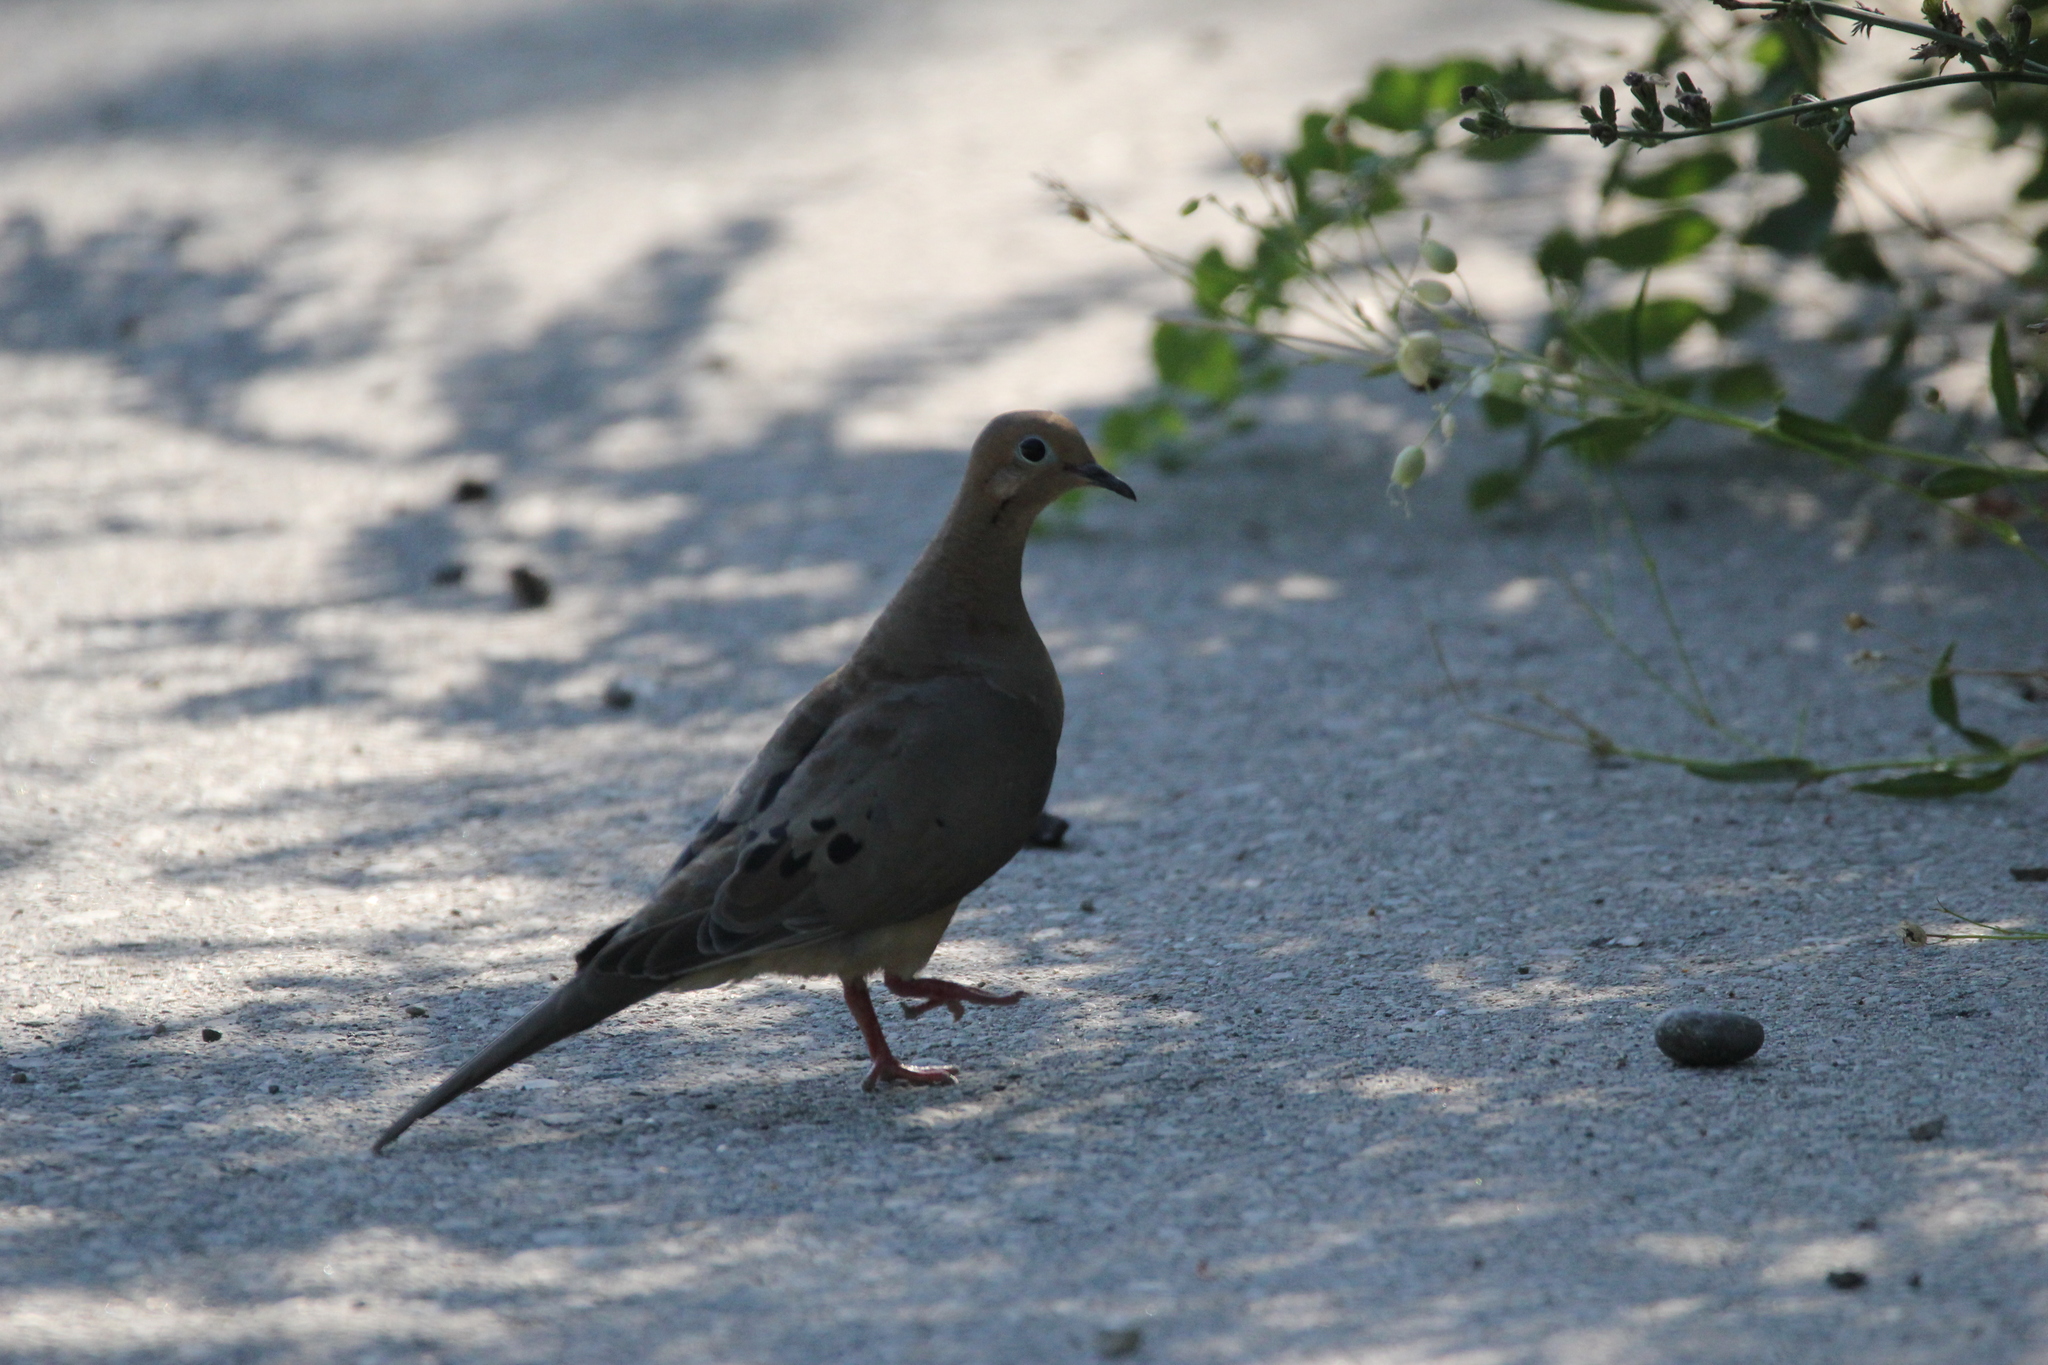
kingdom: Animalia
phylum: Chordata
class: Aves
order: Columbiformes
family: Columbidae
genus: Zenaida
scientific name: Zenaida macroura
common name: Mourning dove
